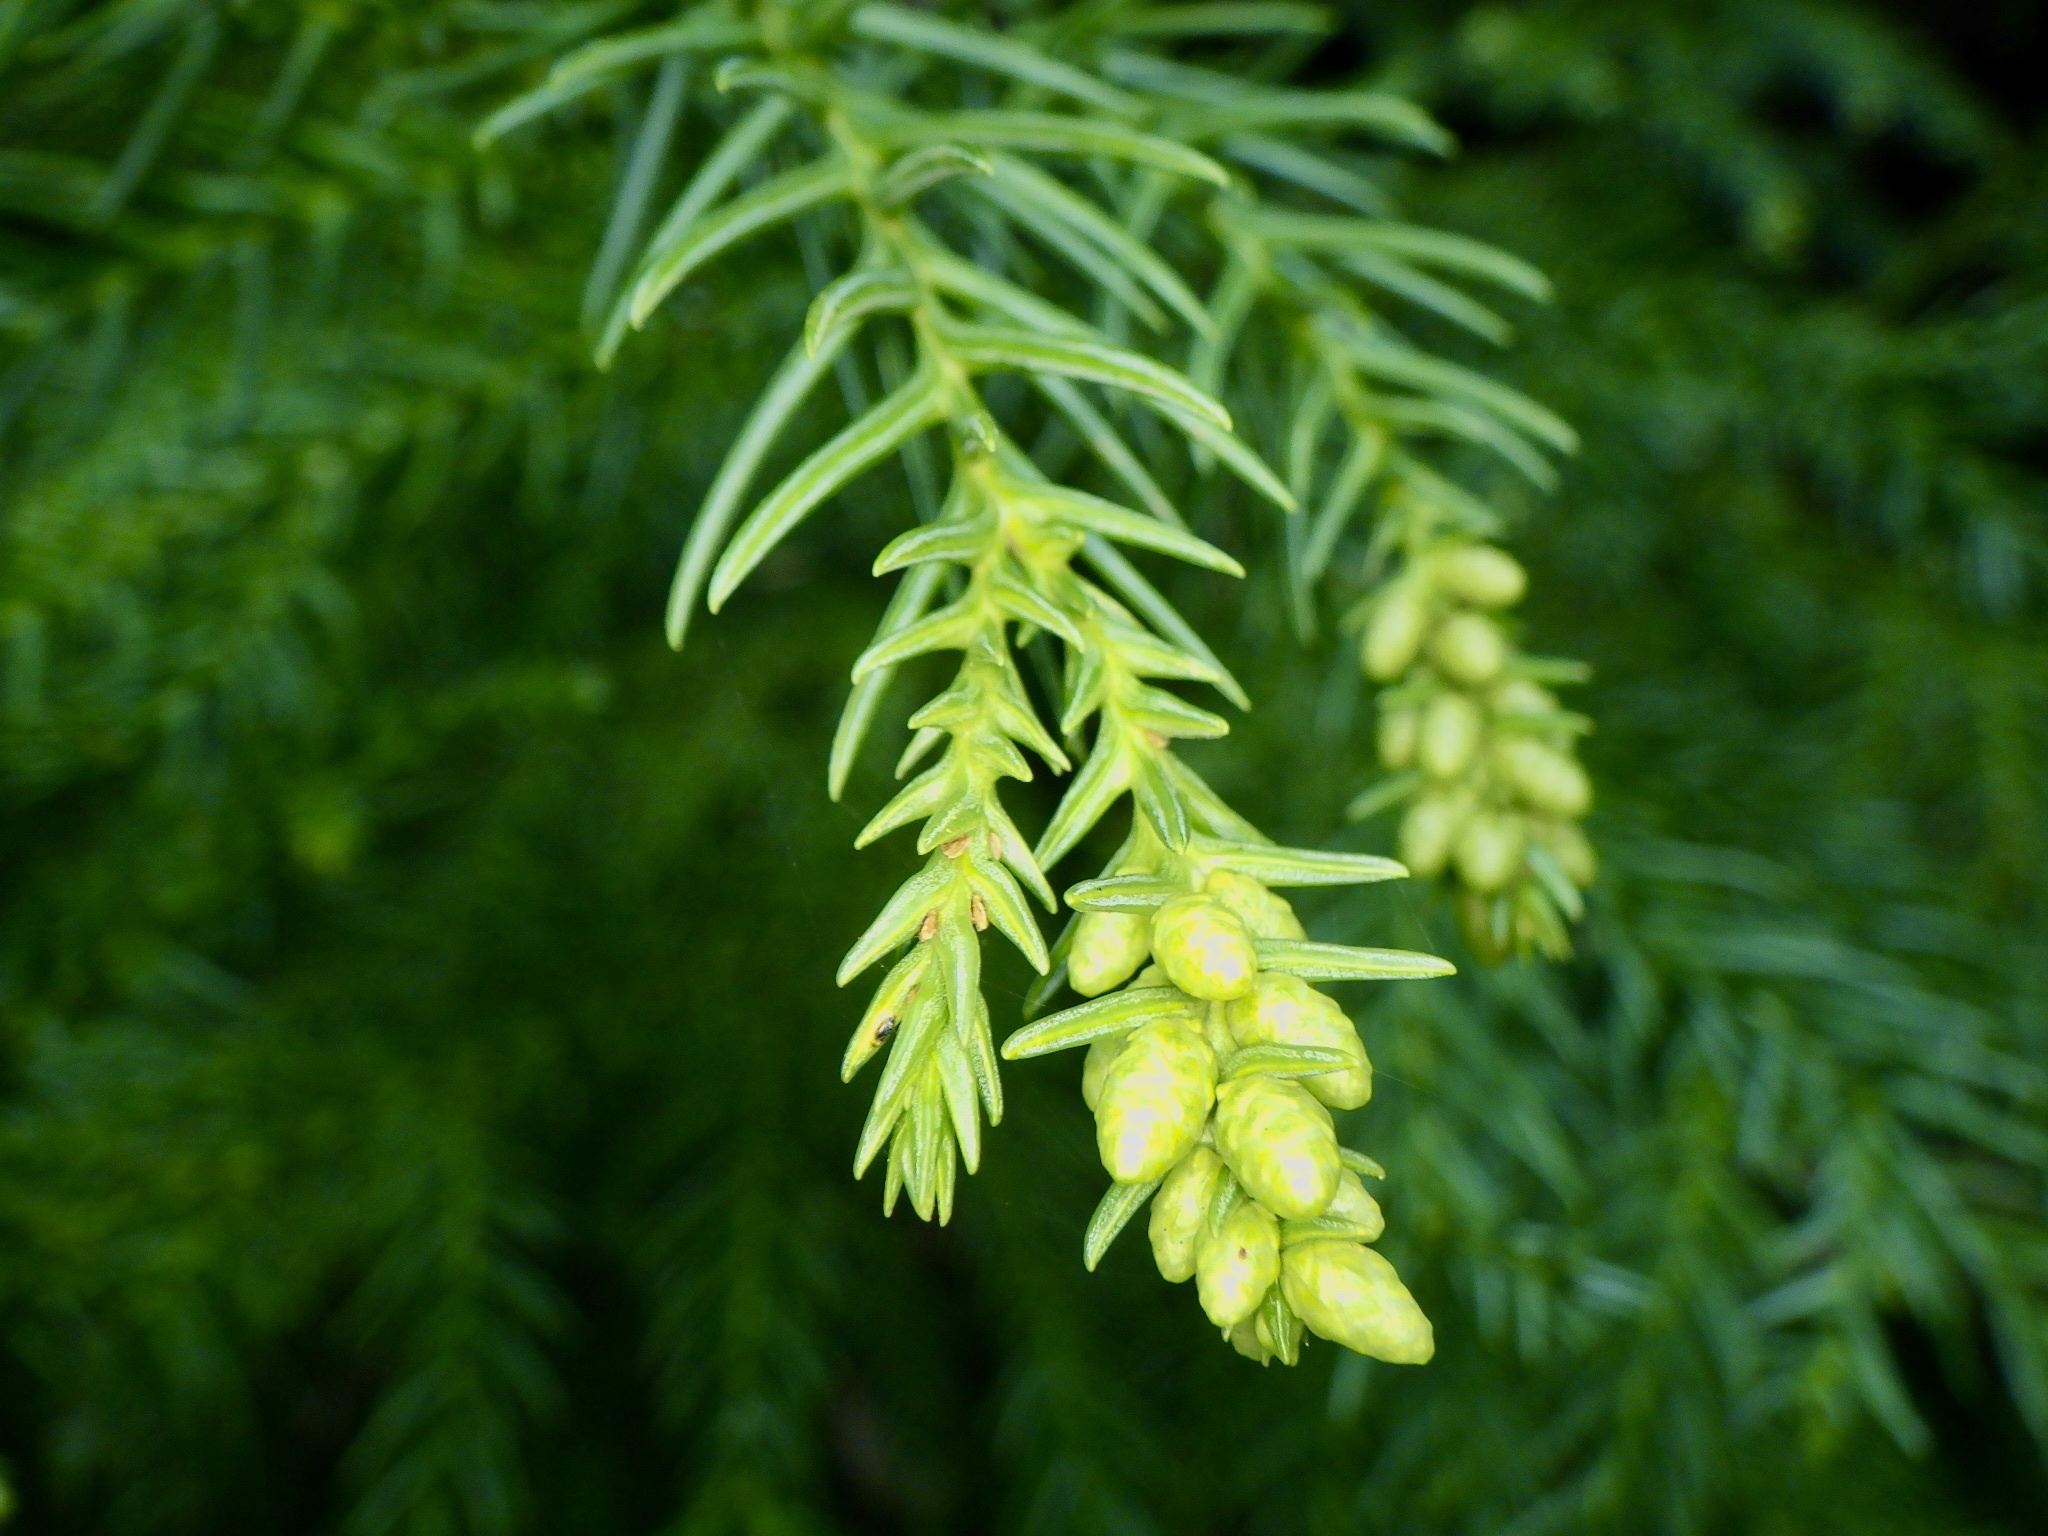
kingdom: Plantae
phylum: Tracheophyta
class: Pinopsida
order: Pinales
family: Cupressaceae
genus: Cryptomeria
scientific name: Cryptomeria japonica
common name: Japanese cedar
